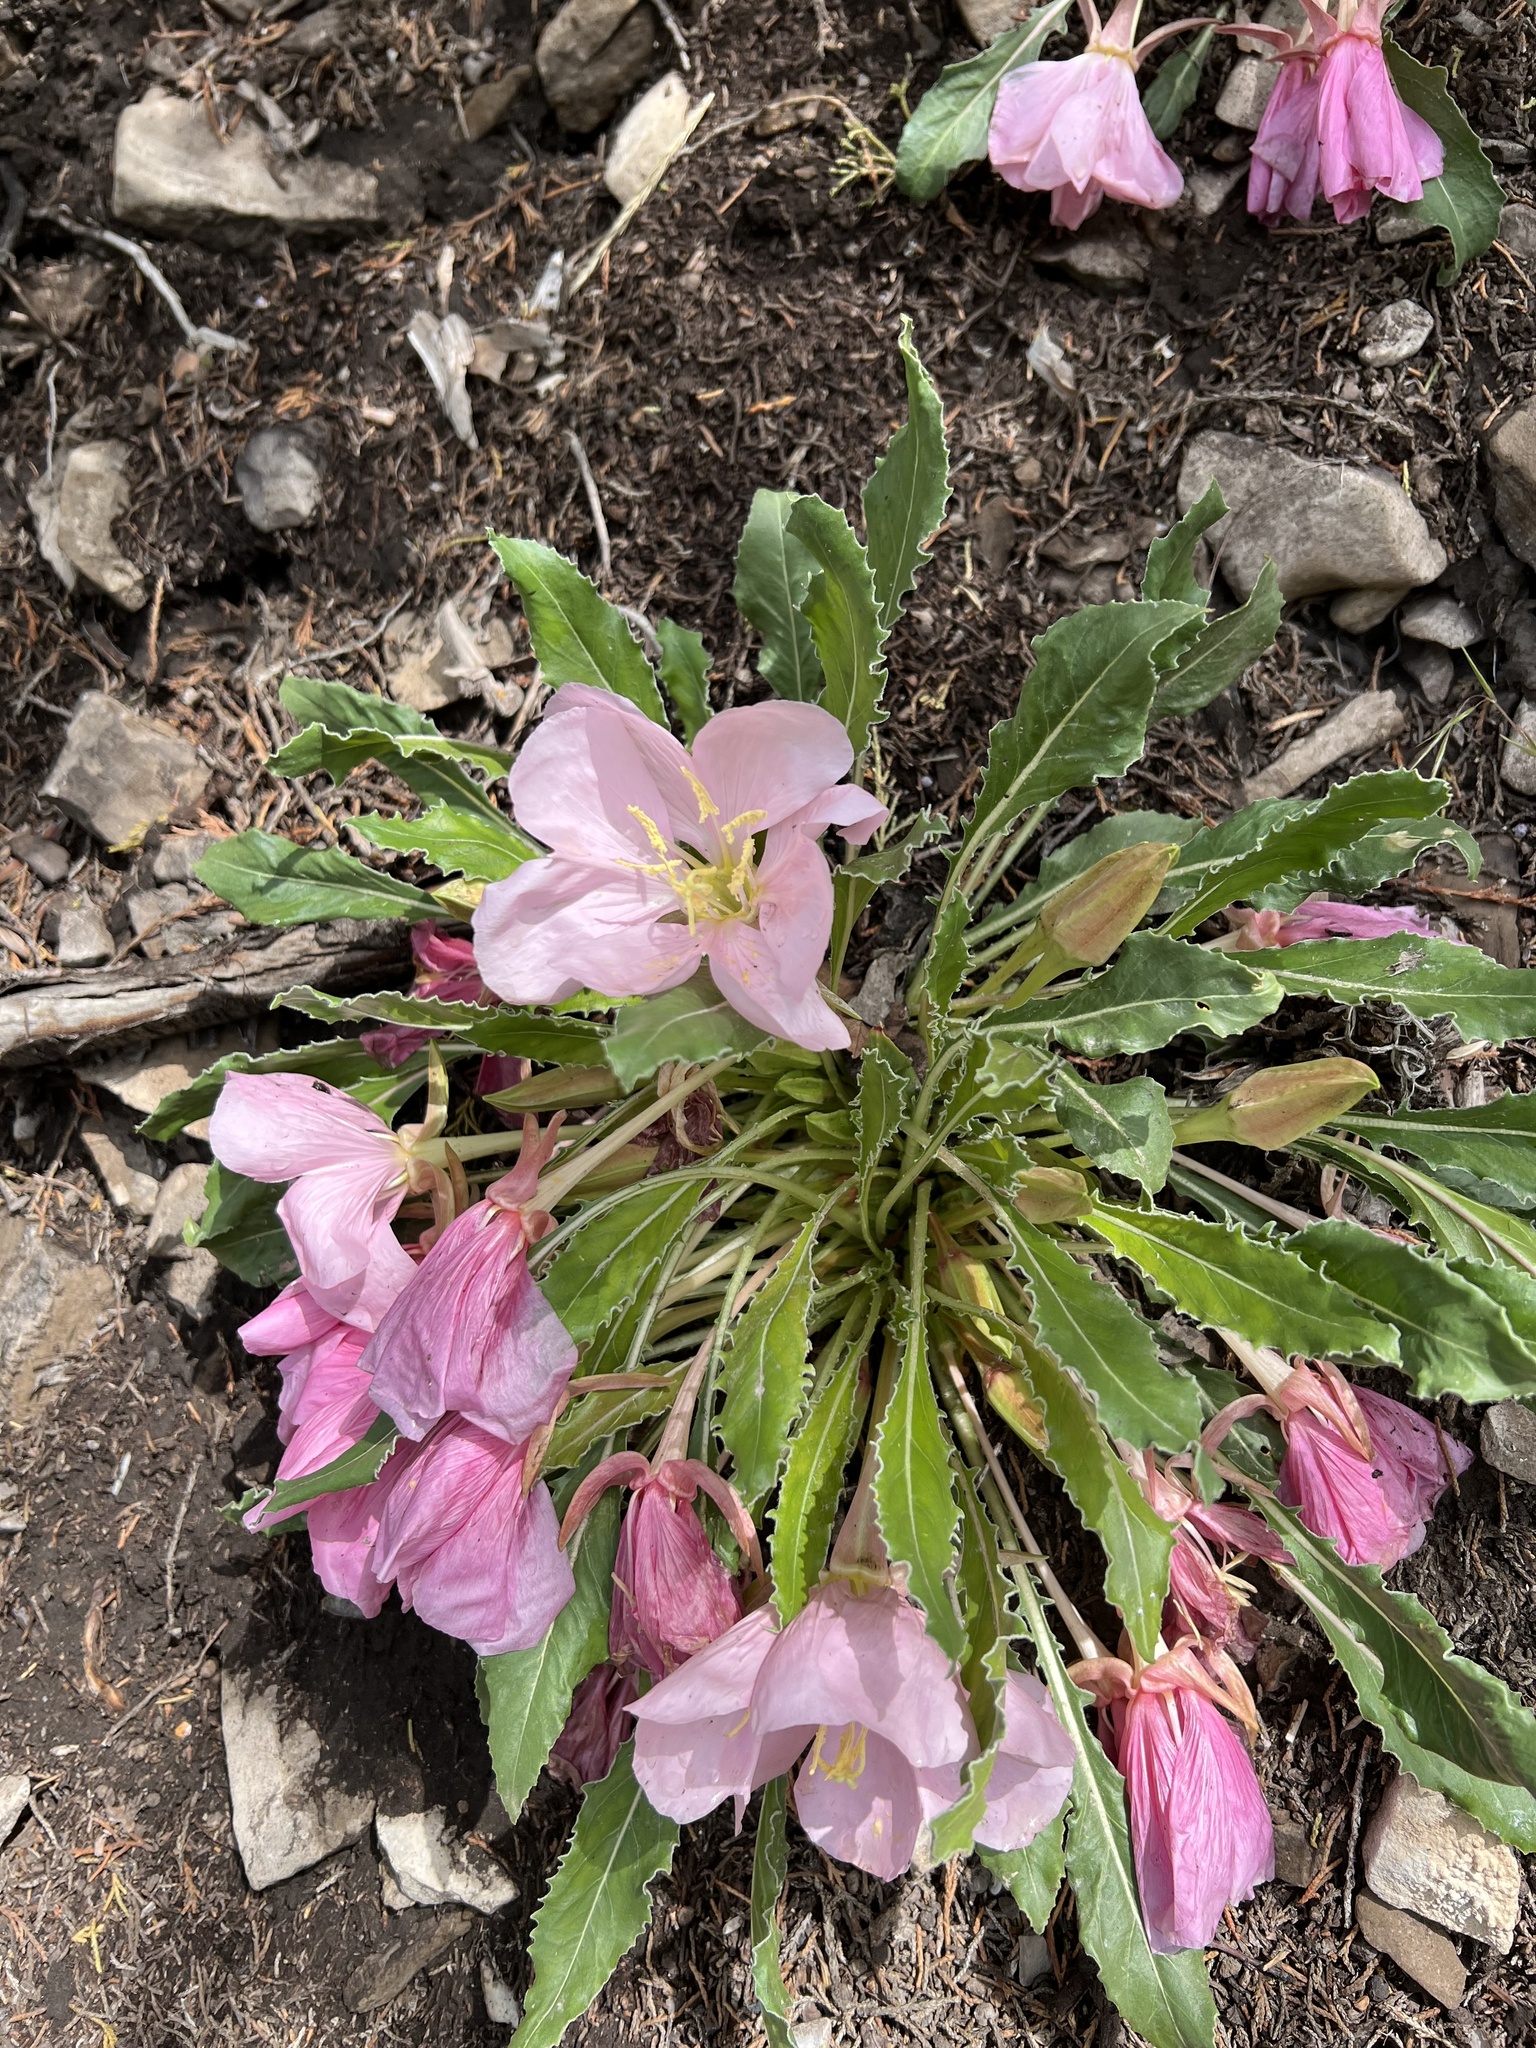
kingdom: Plantae
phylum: Tracheophyta
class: Magnoliopsida
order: Myrtales
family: Onagraceae
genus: Oenothera
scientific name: Oenothera cespitosa
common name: Tufted evening-primrose
